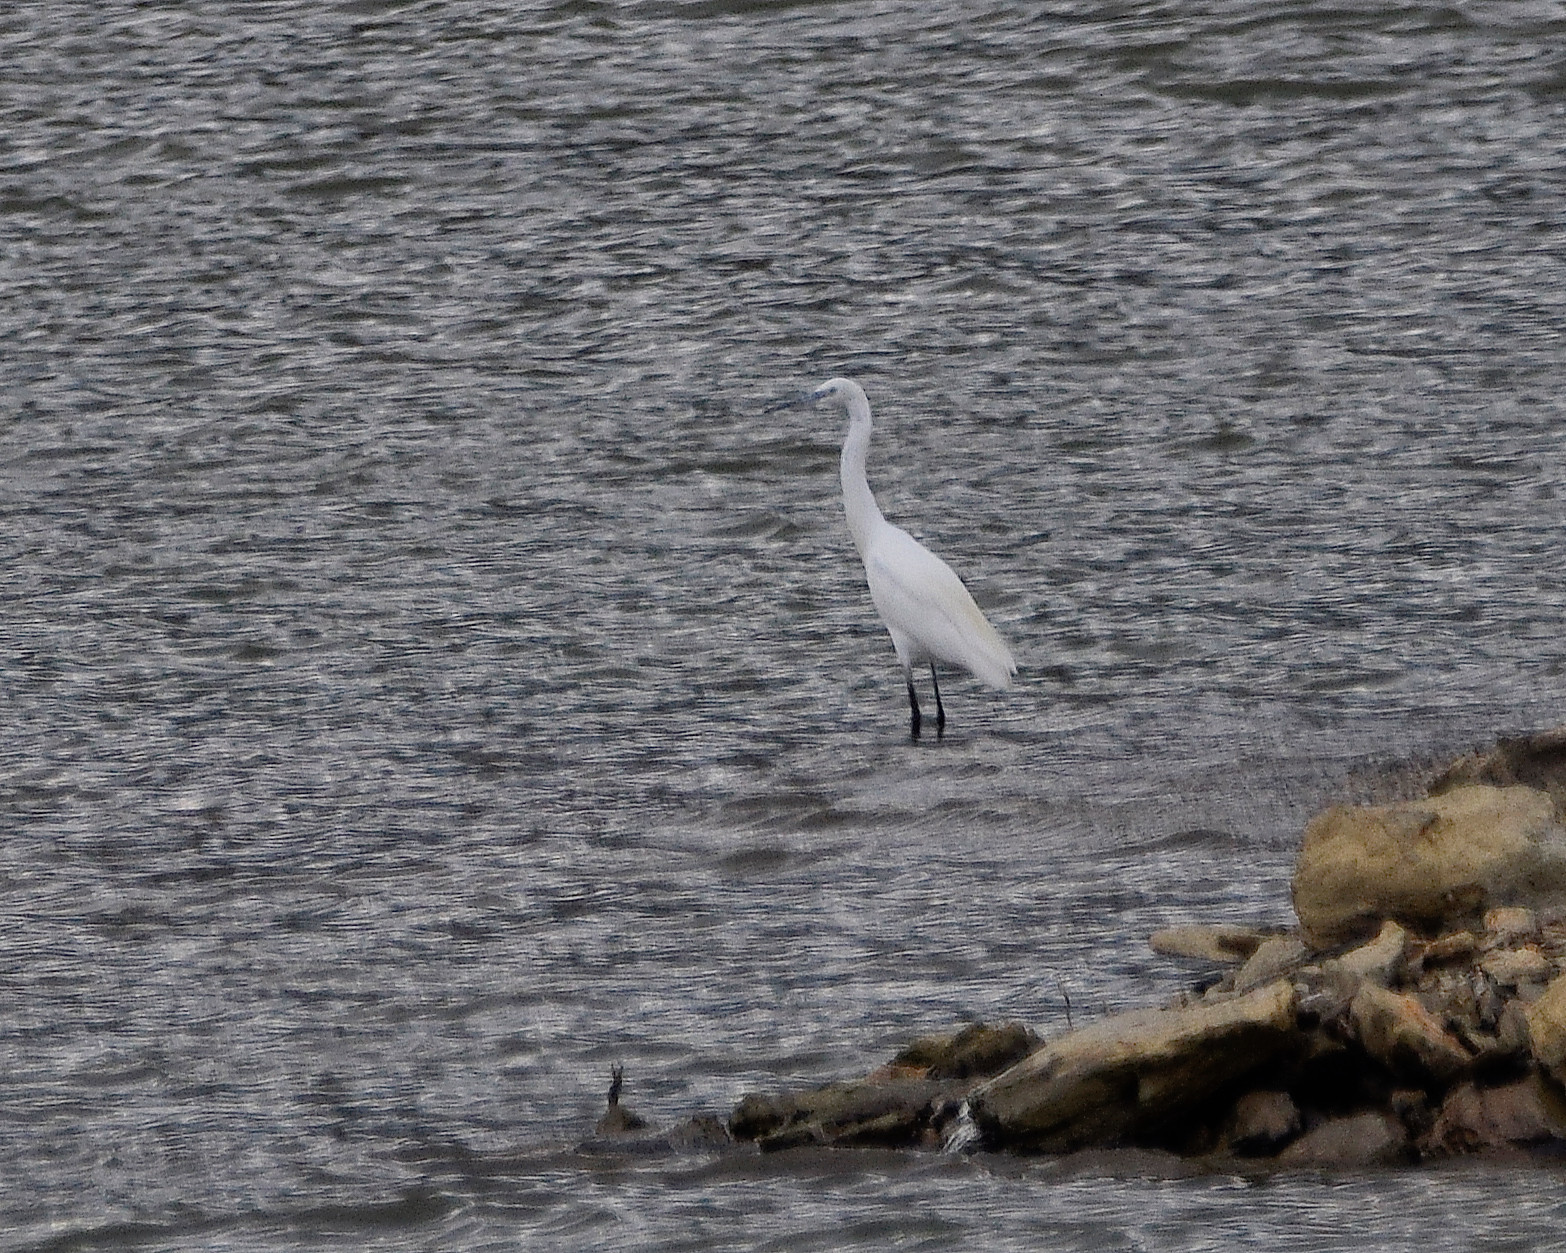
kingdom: Animalia
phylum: Chordata
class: Aves
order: Pelecaniformes
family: Ardeidae
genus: Egretta
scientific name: Egretta garzetta
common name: Little egret
